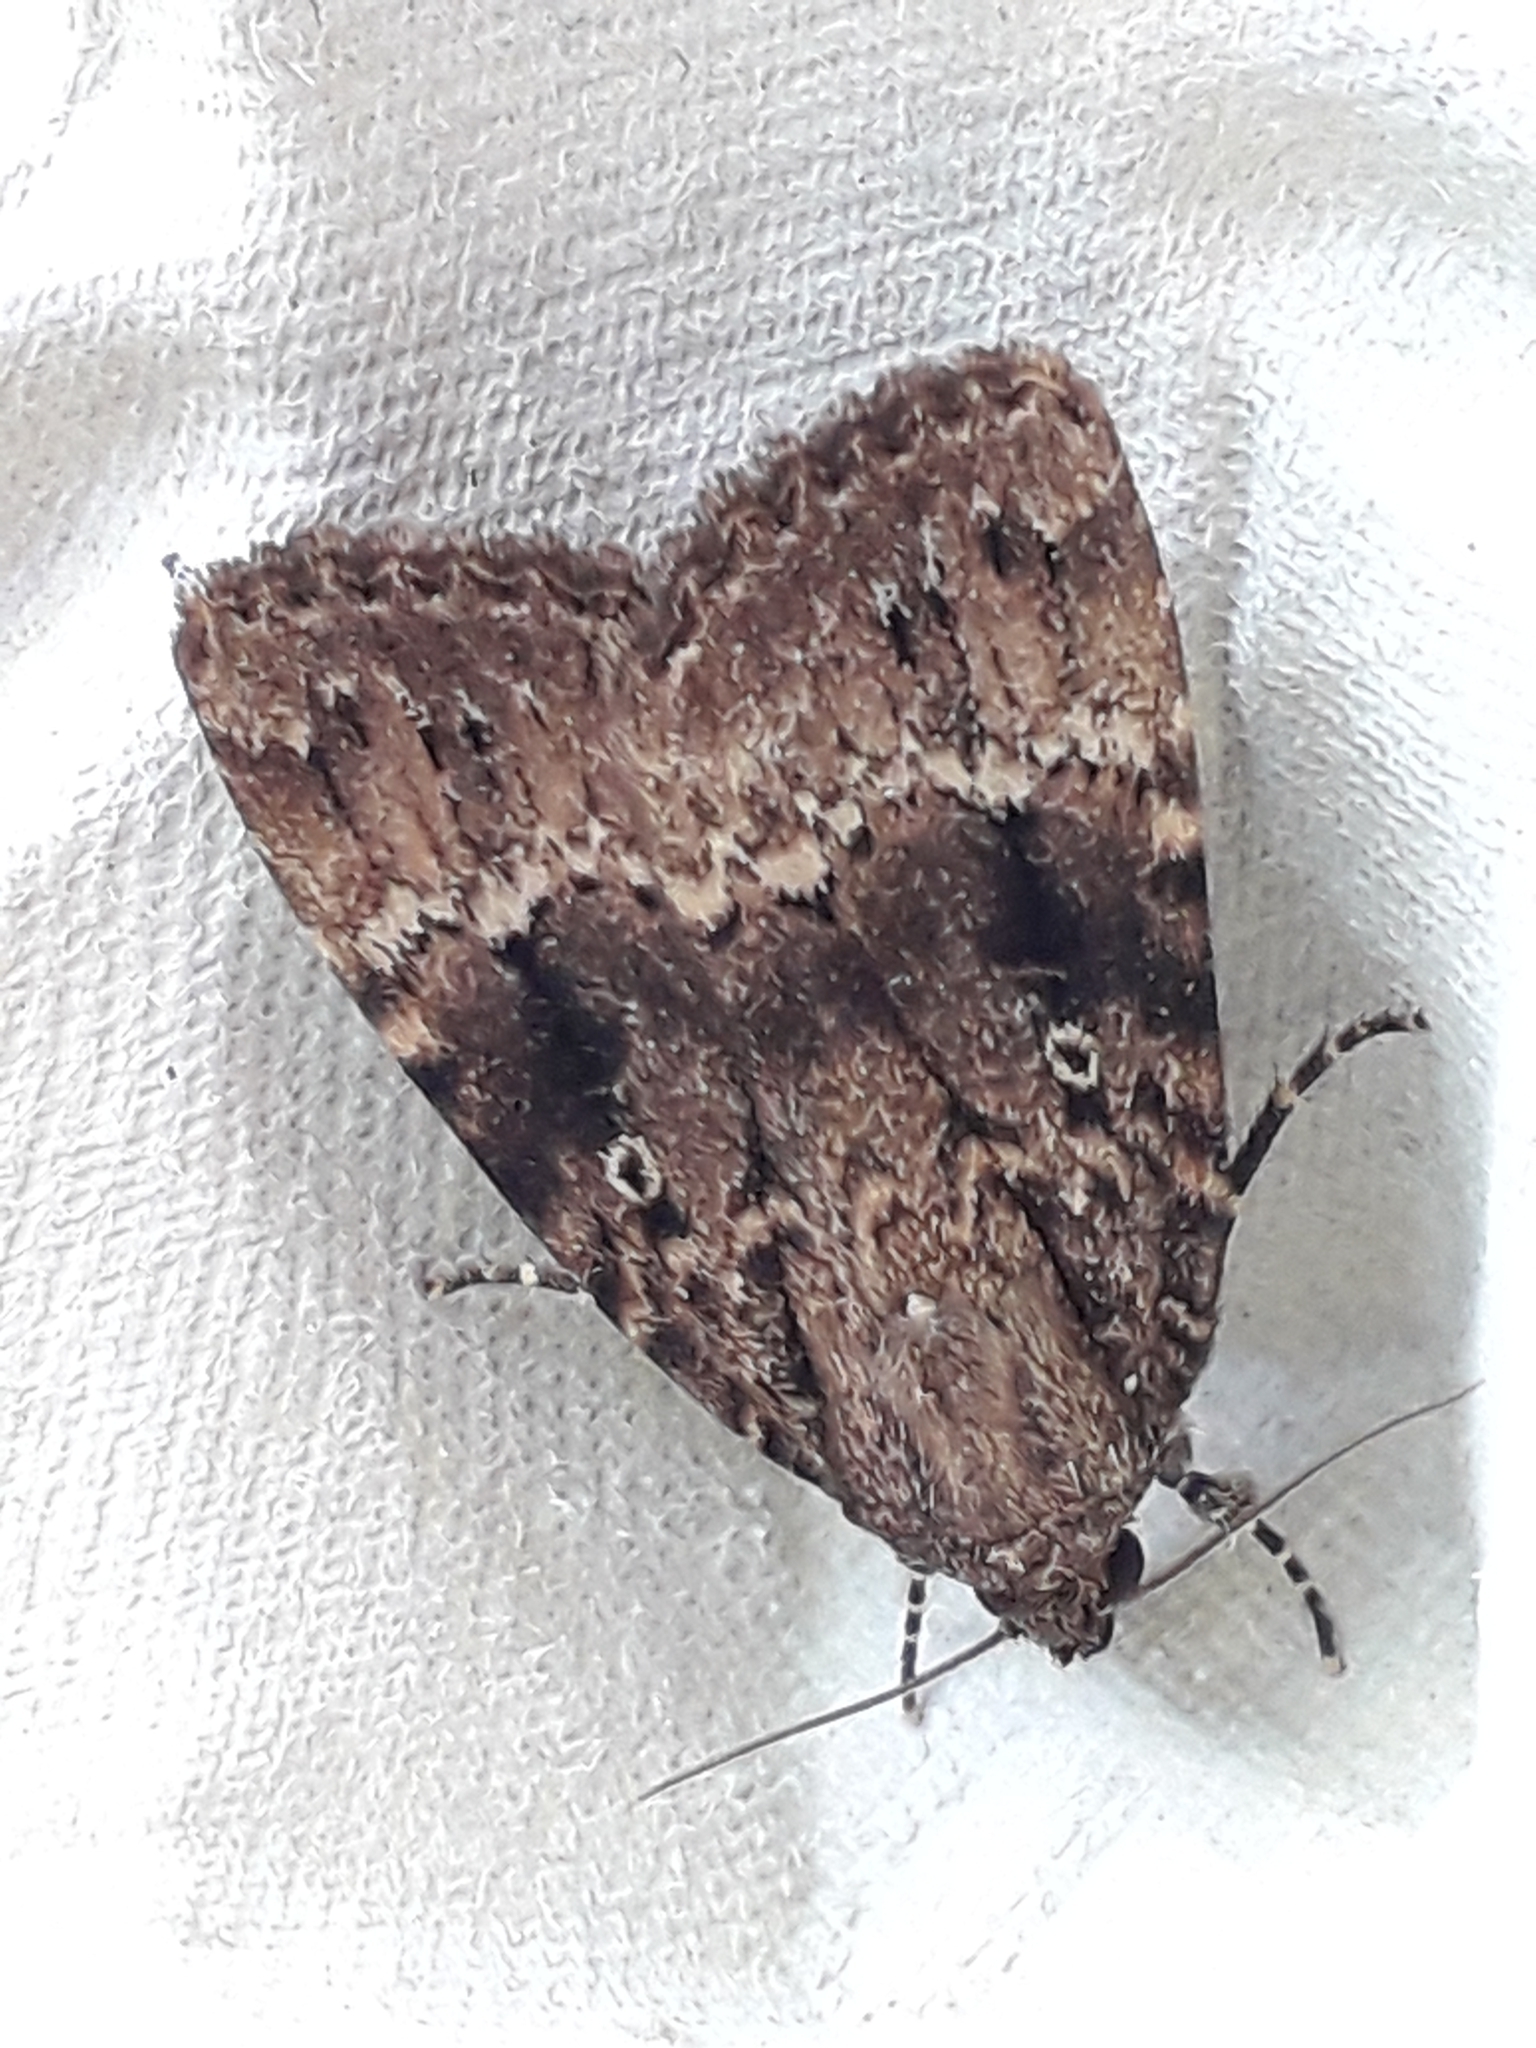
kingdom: Animalia
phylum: Arthropoda
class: Insecta
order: Lepidoptera
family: Noctuidae
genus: Amphipyra
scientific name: Amphipyra pyramidea
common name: Copper underwing
